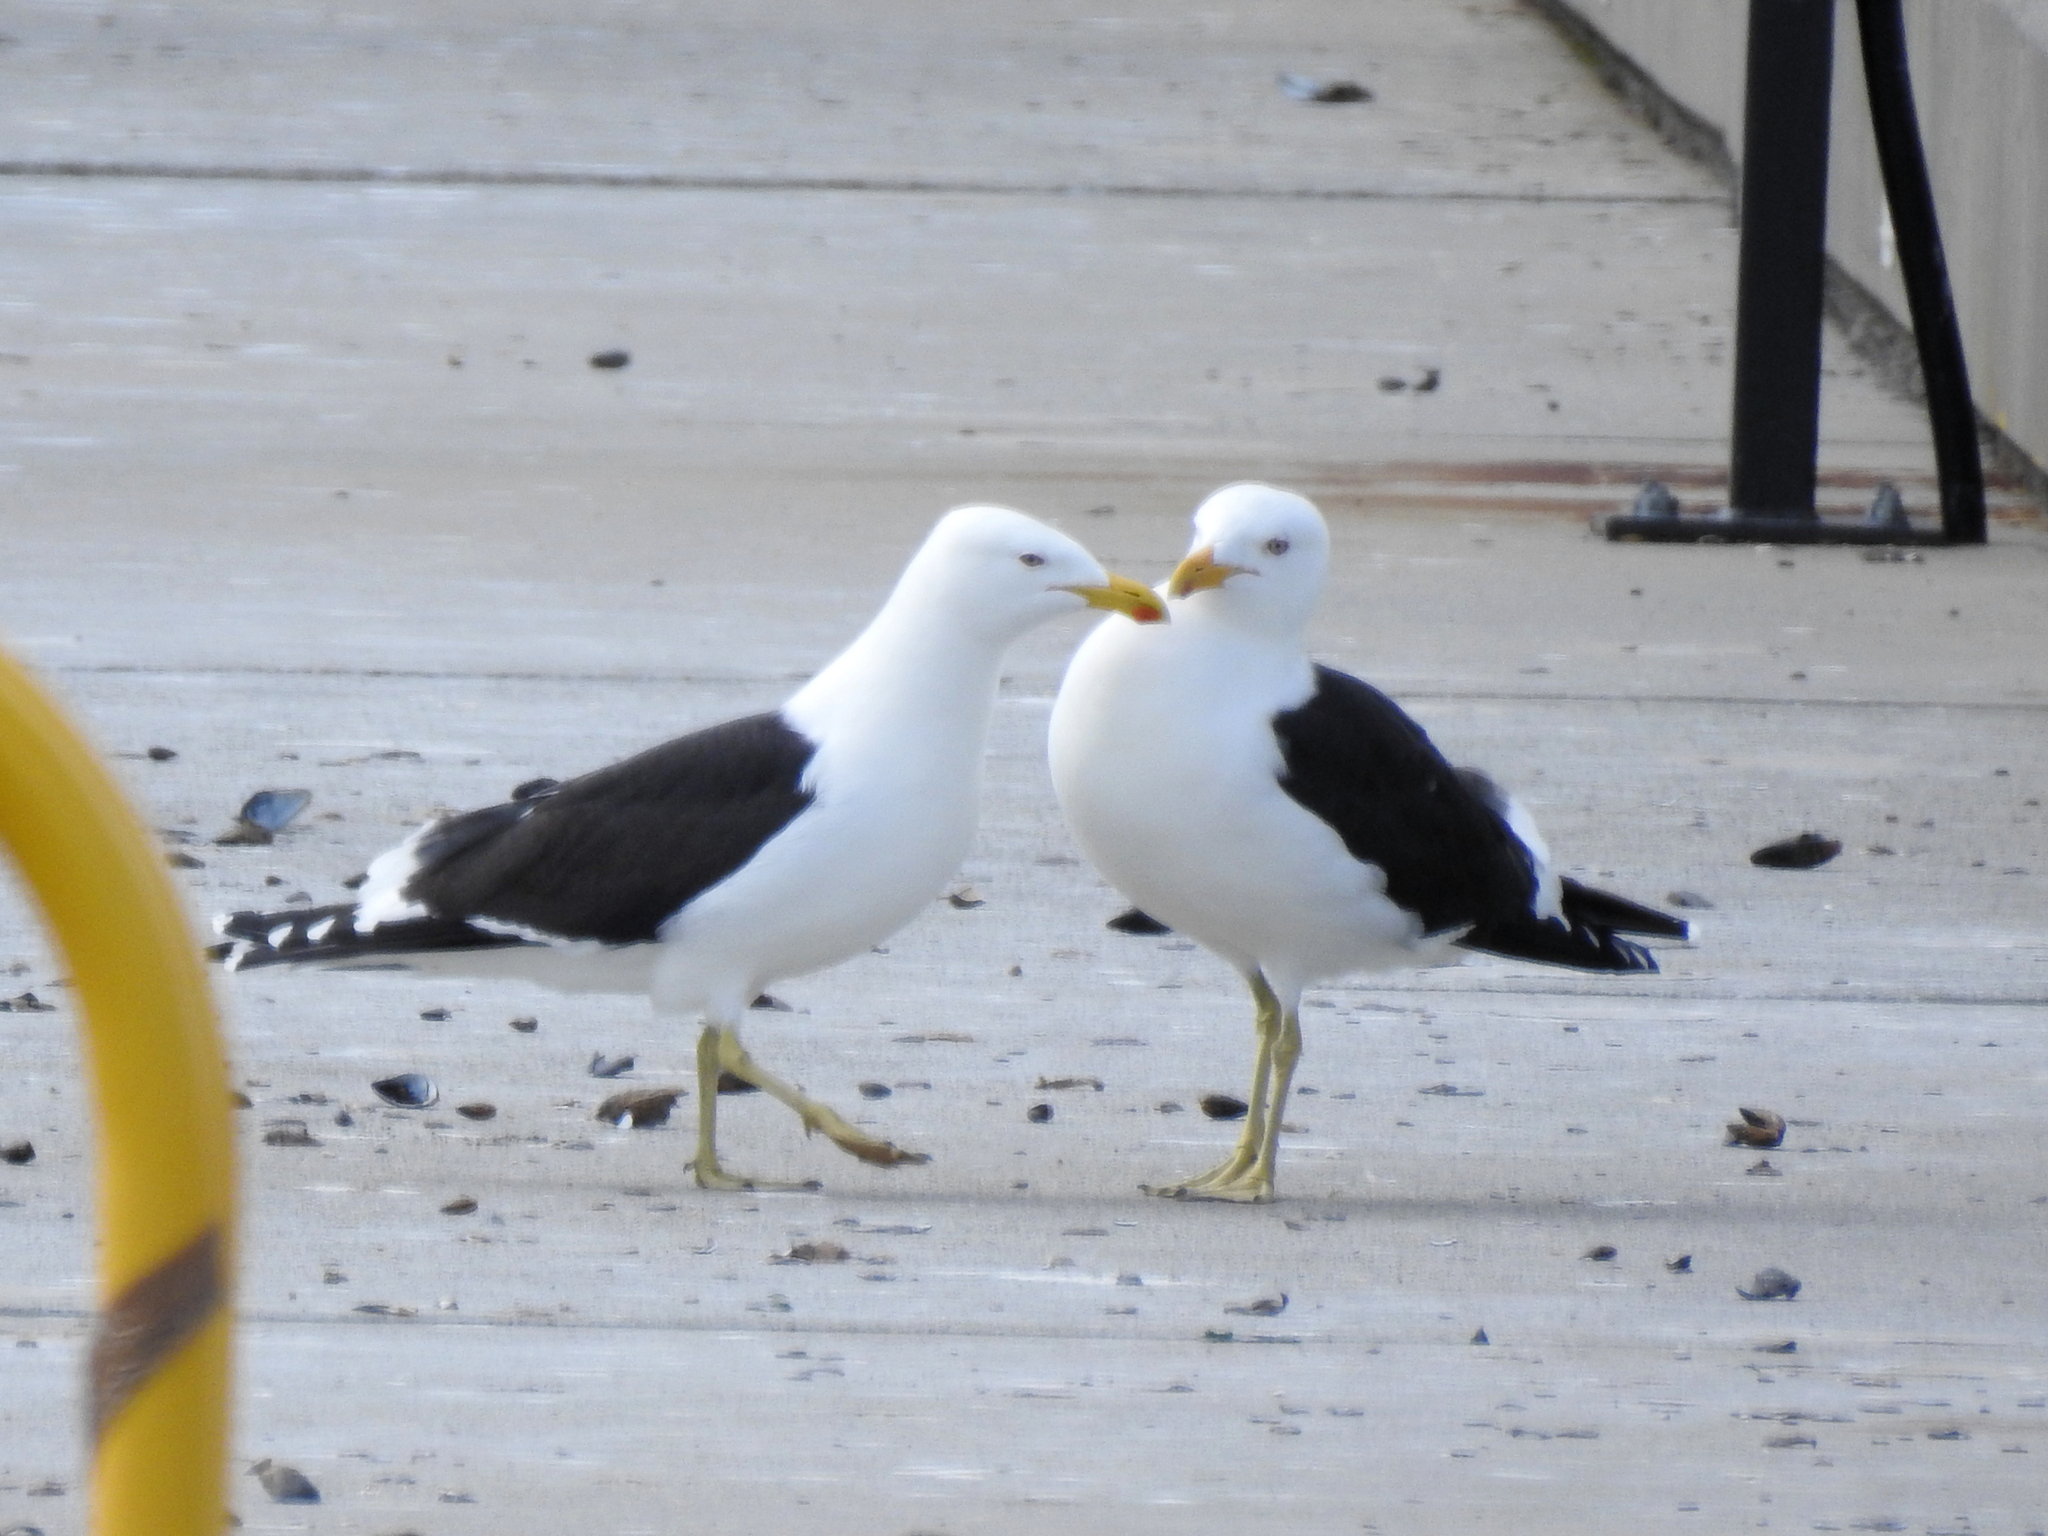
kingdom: Animalia
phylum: Chordata
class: Aves
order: Charadriiformes
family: Laridae
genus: Larus
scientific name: Larus dominicanus
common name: Kelp gull
